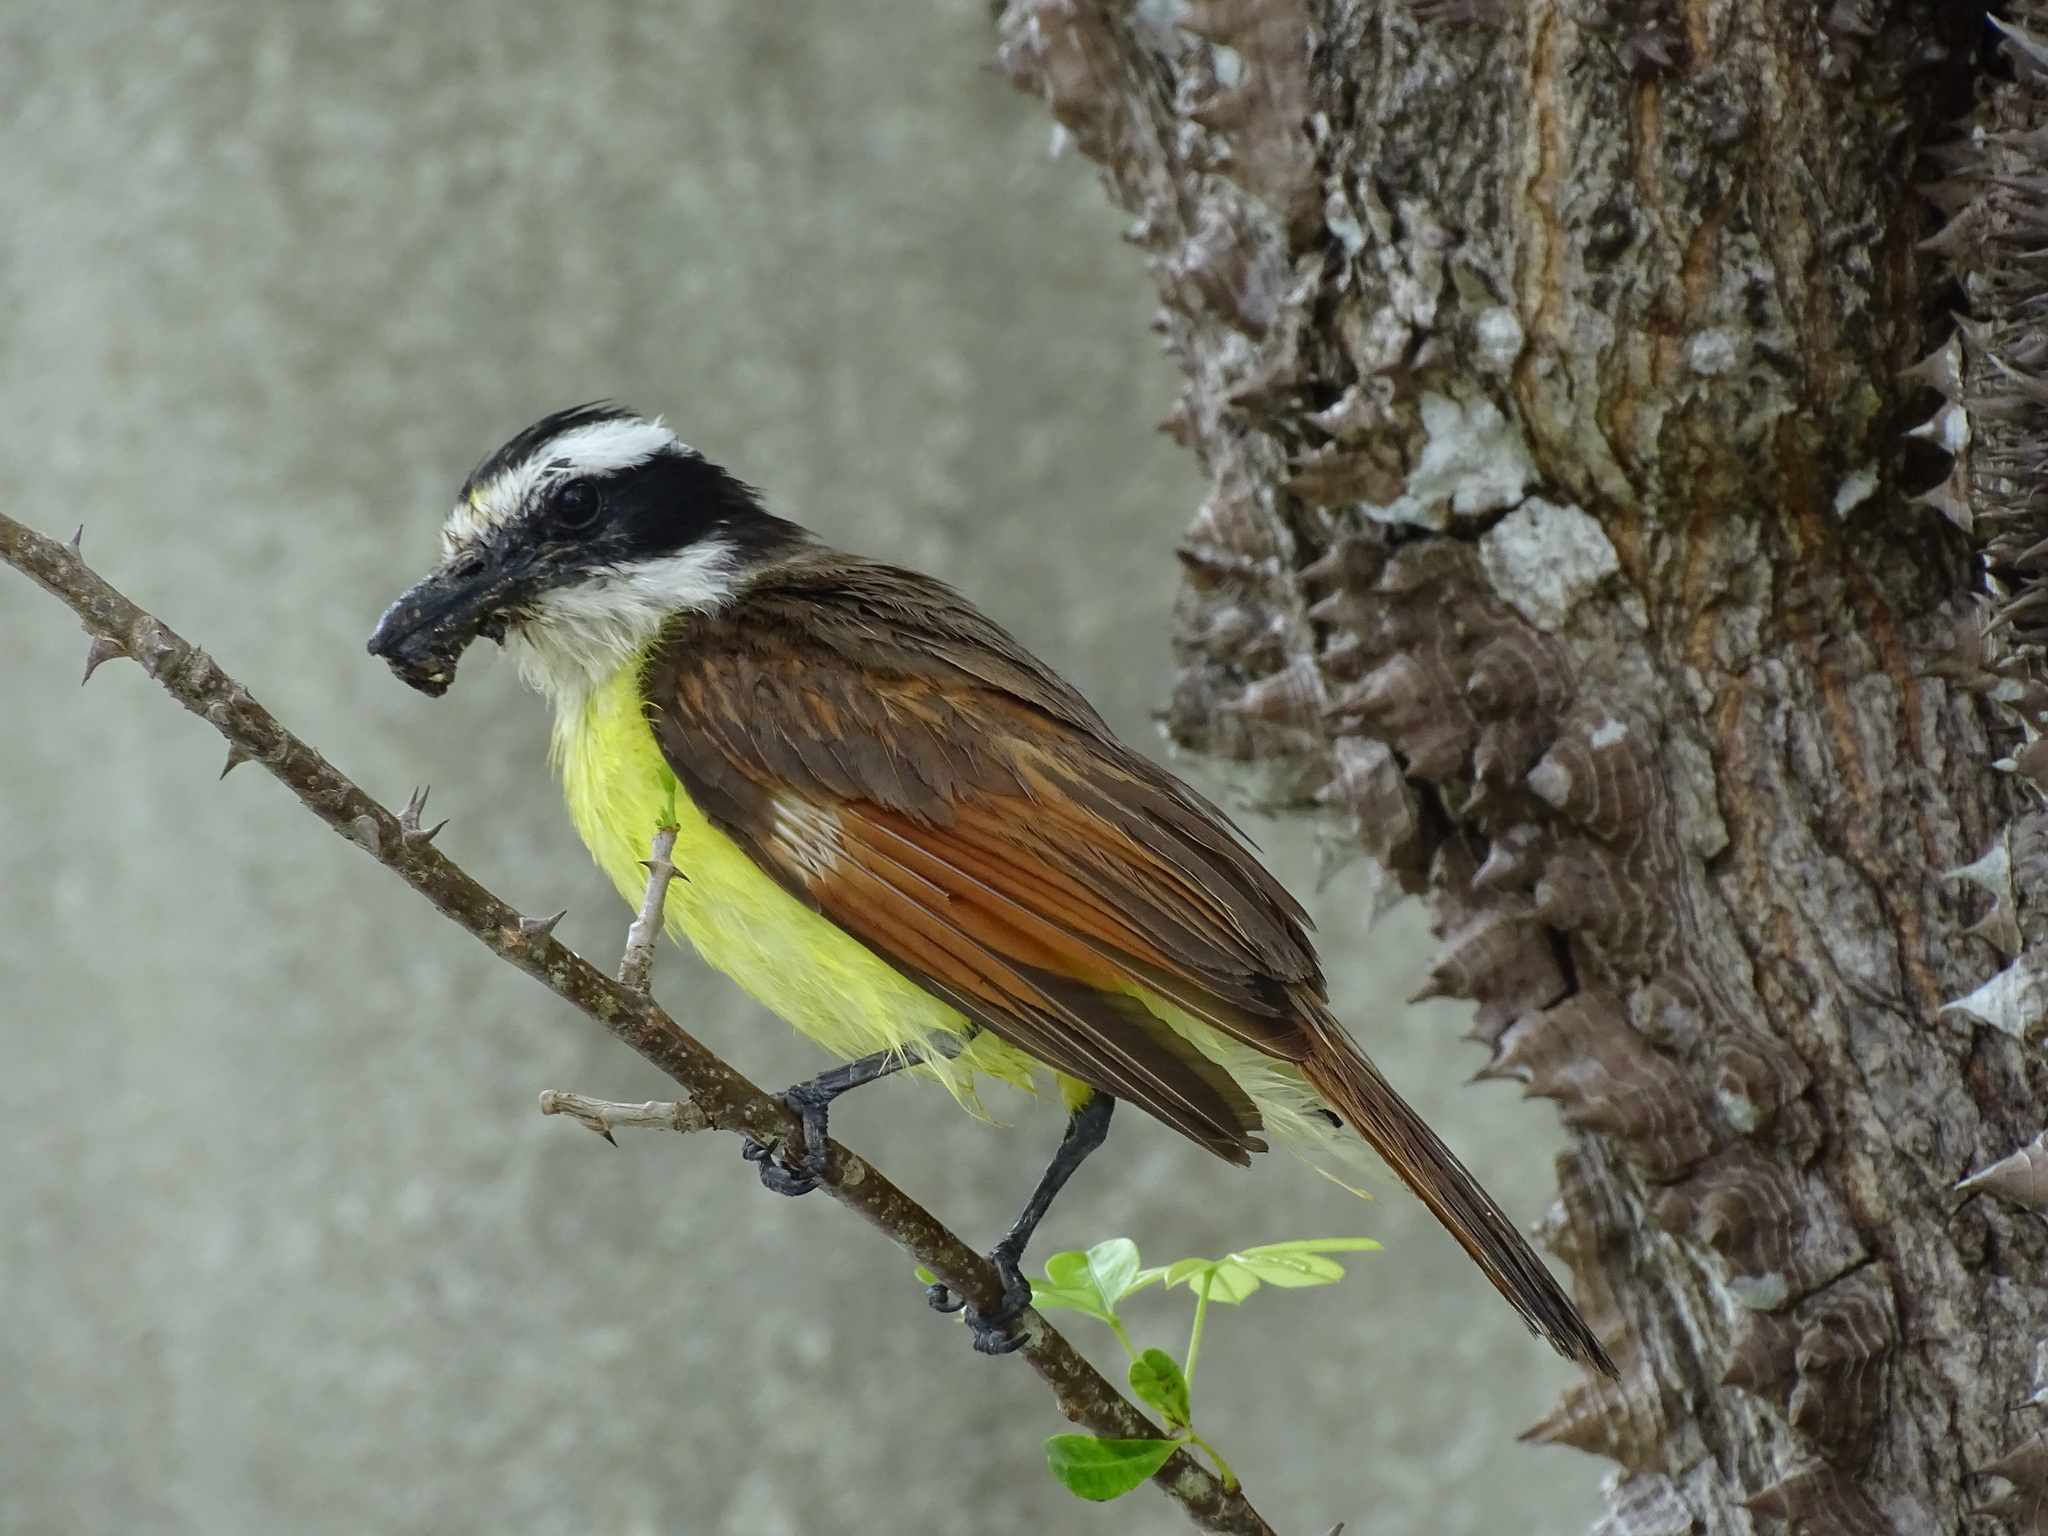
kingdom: Animalia
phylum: Chordata
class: Aves
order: Passeriformes
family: Tyrannidae
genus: Pitangus
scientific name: Pitangus sulphuratus
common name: Great kiskadee
